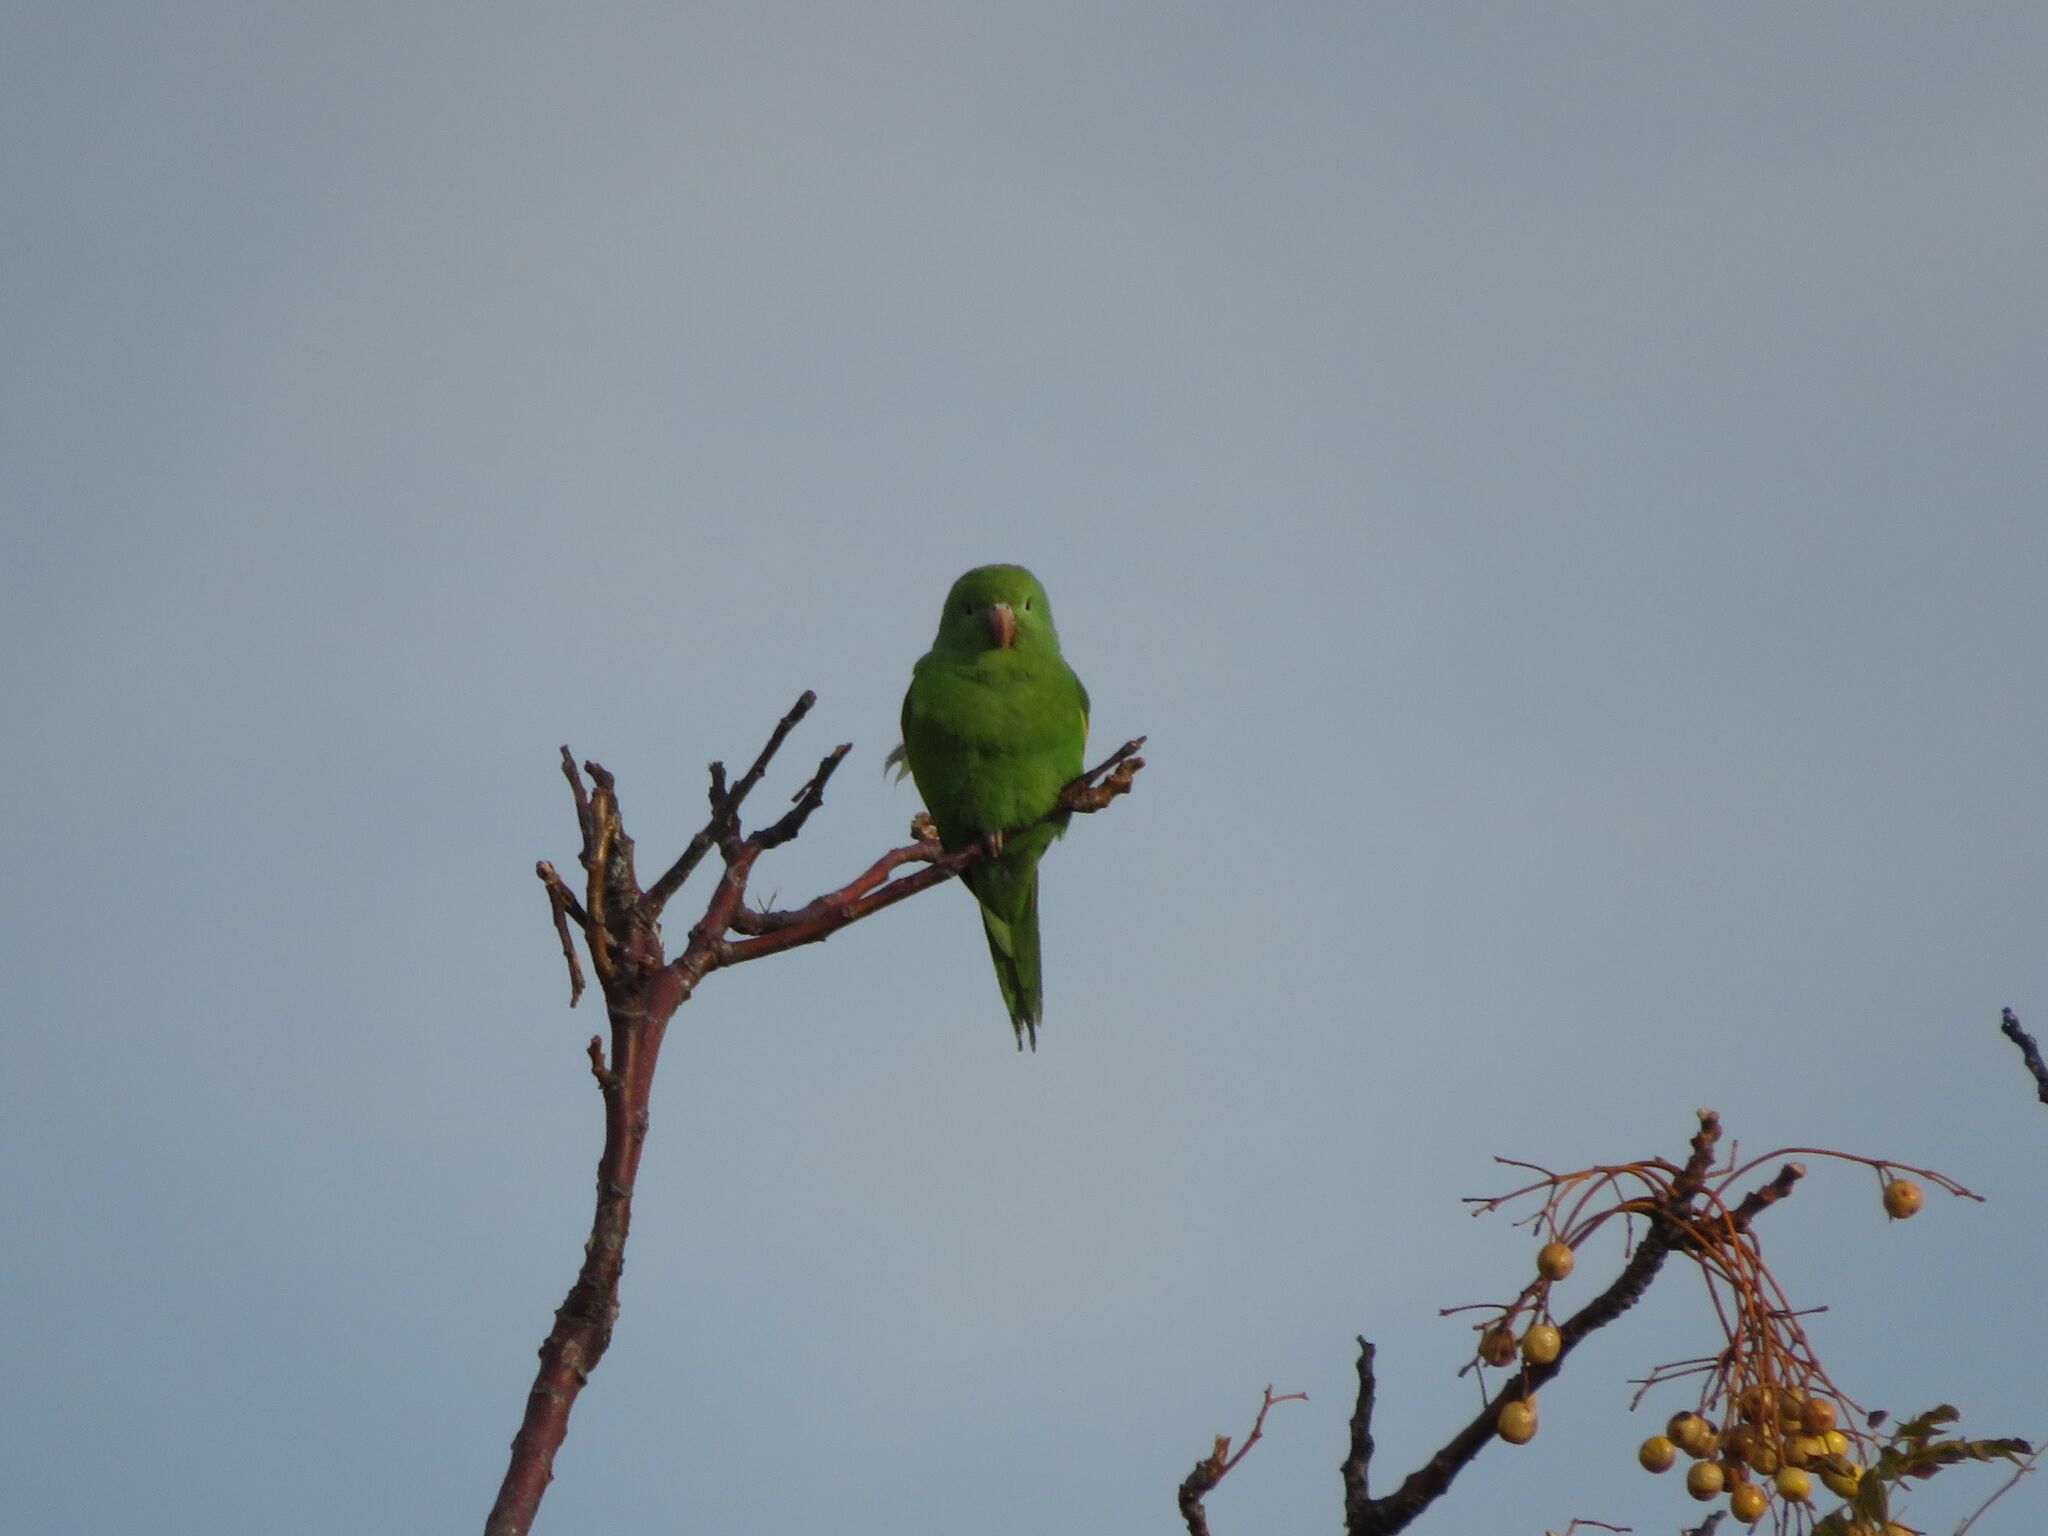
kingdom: Animalia
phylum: Chordata
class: Aves
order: Psittaciformes
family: Psittacidae
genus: Brotogeris
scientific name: Brotogeris chiriri
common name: Yellow-chevroned parakeet
